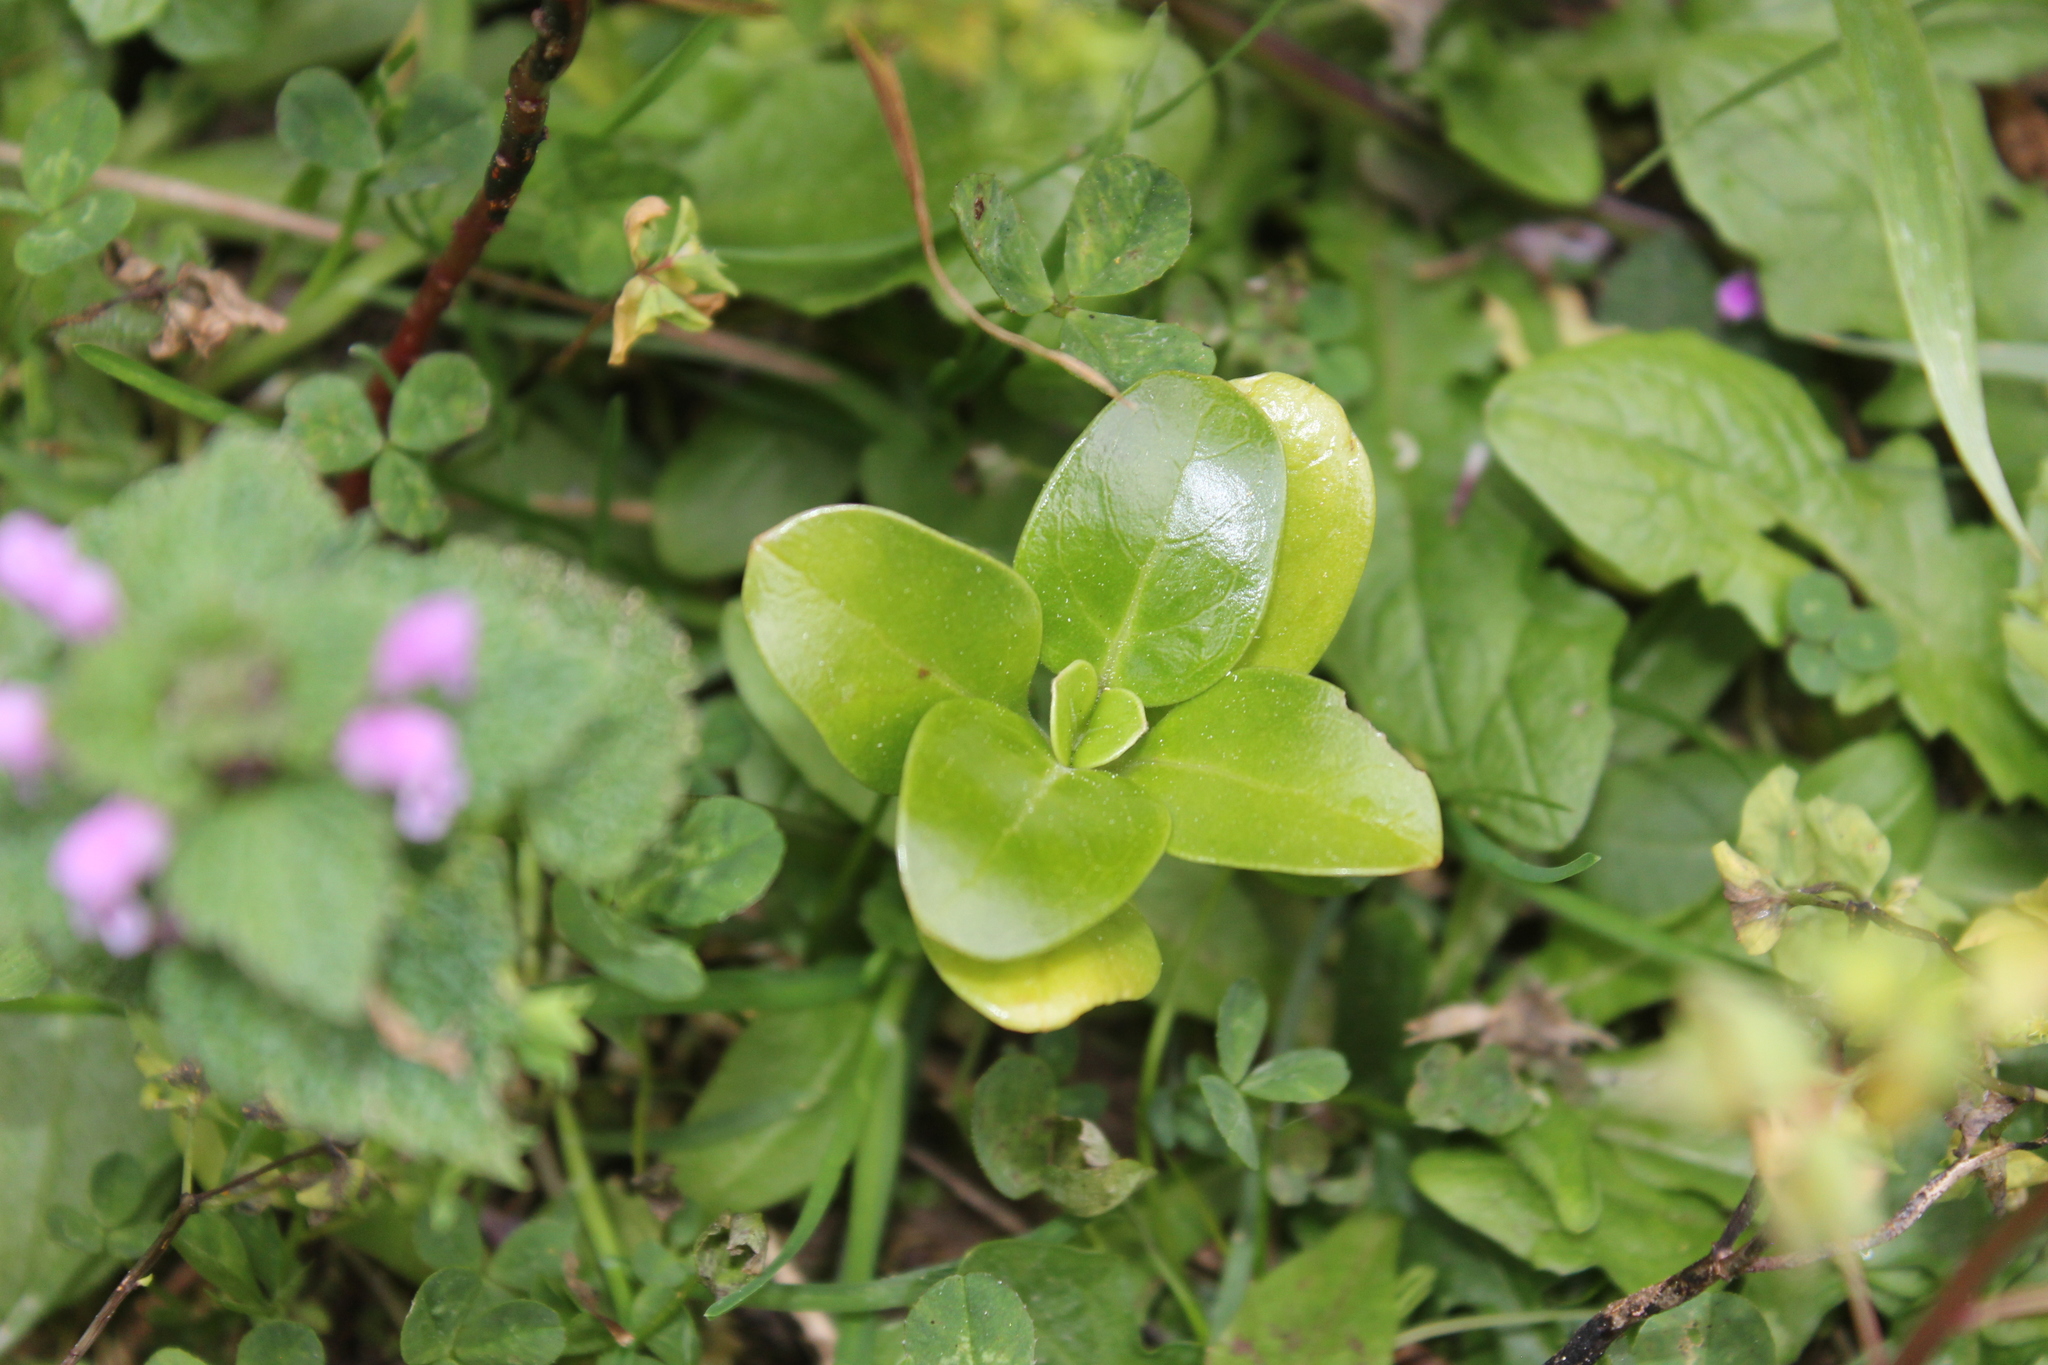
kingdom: Plantae
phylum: Tracheophyta
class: Magnoliopsida
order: Gentianales
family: Rubiaceae
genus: Coprosma
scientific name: Coprosma repens
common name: Tree bedstraw
